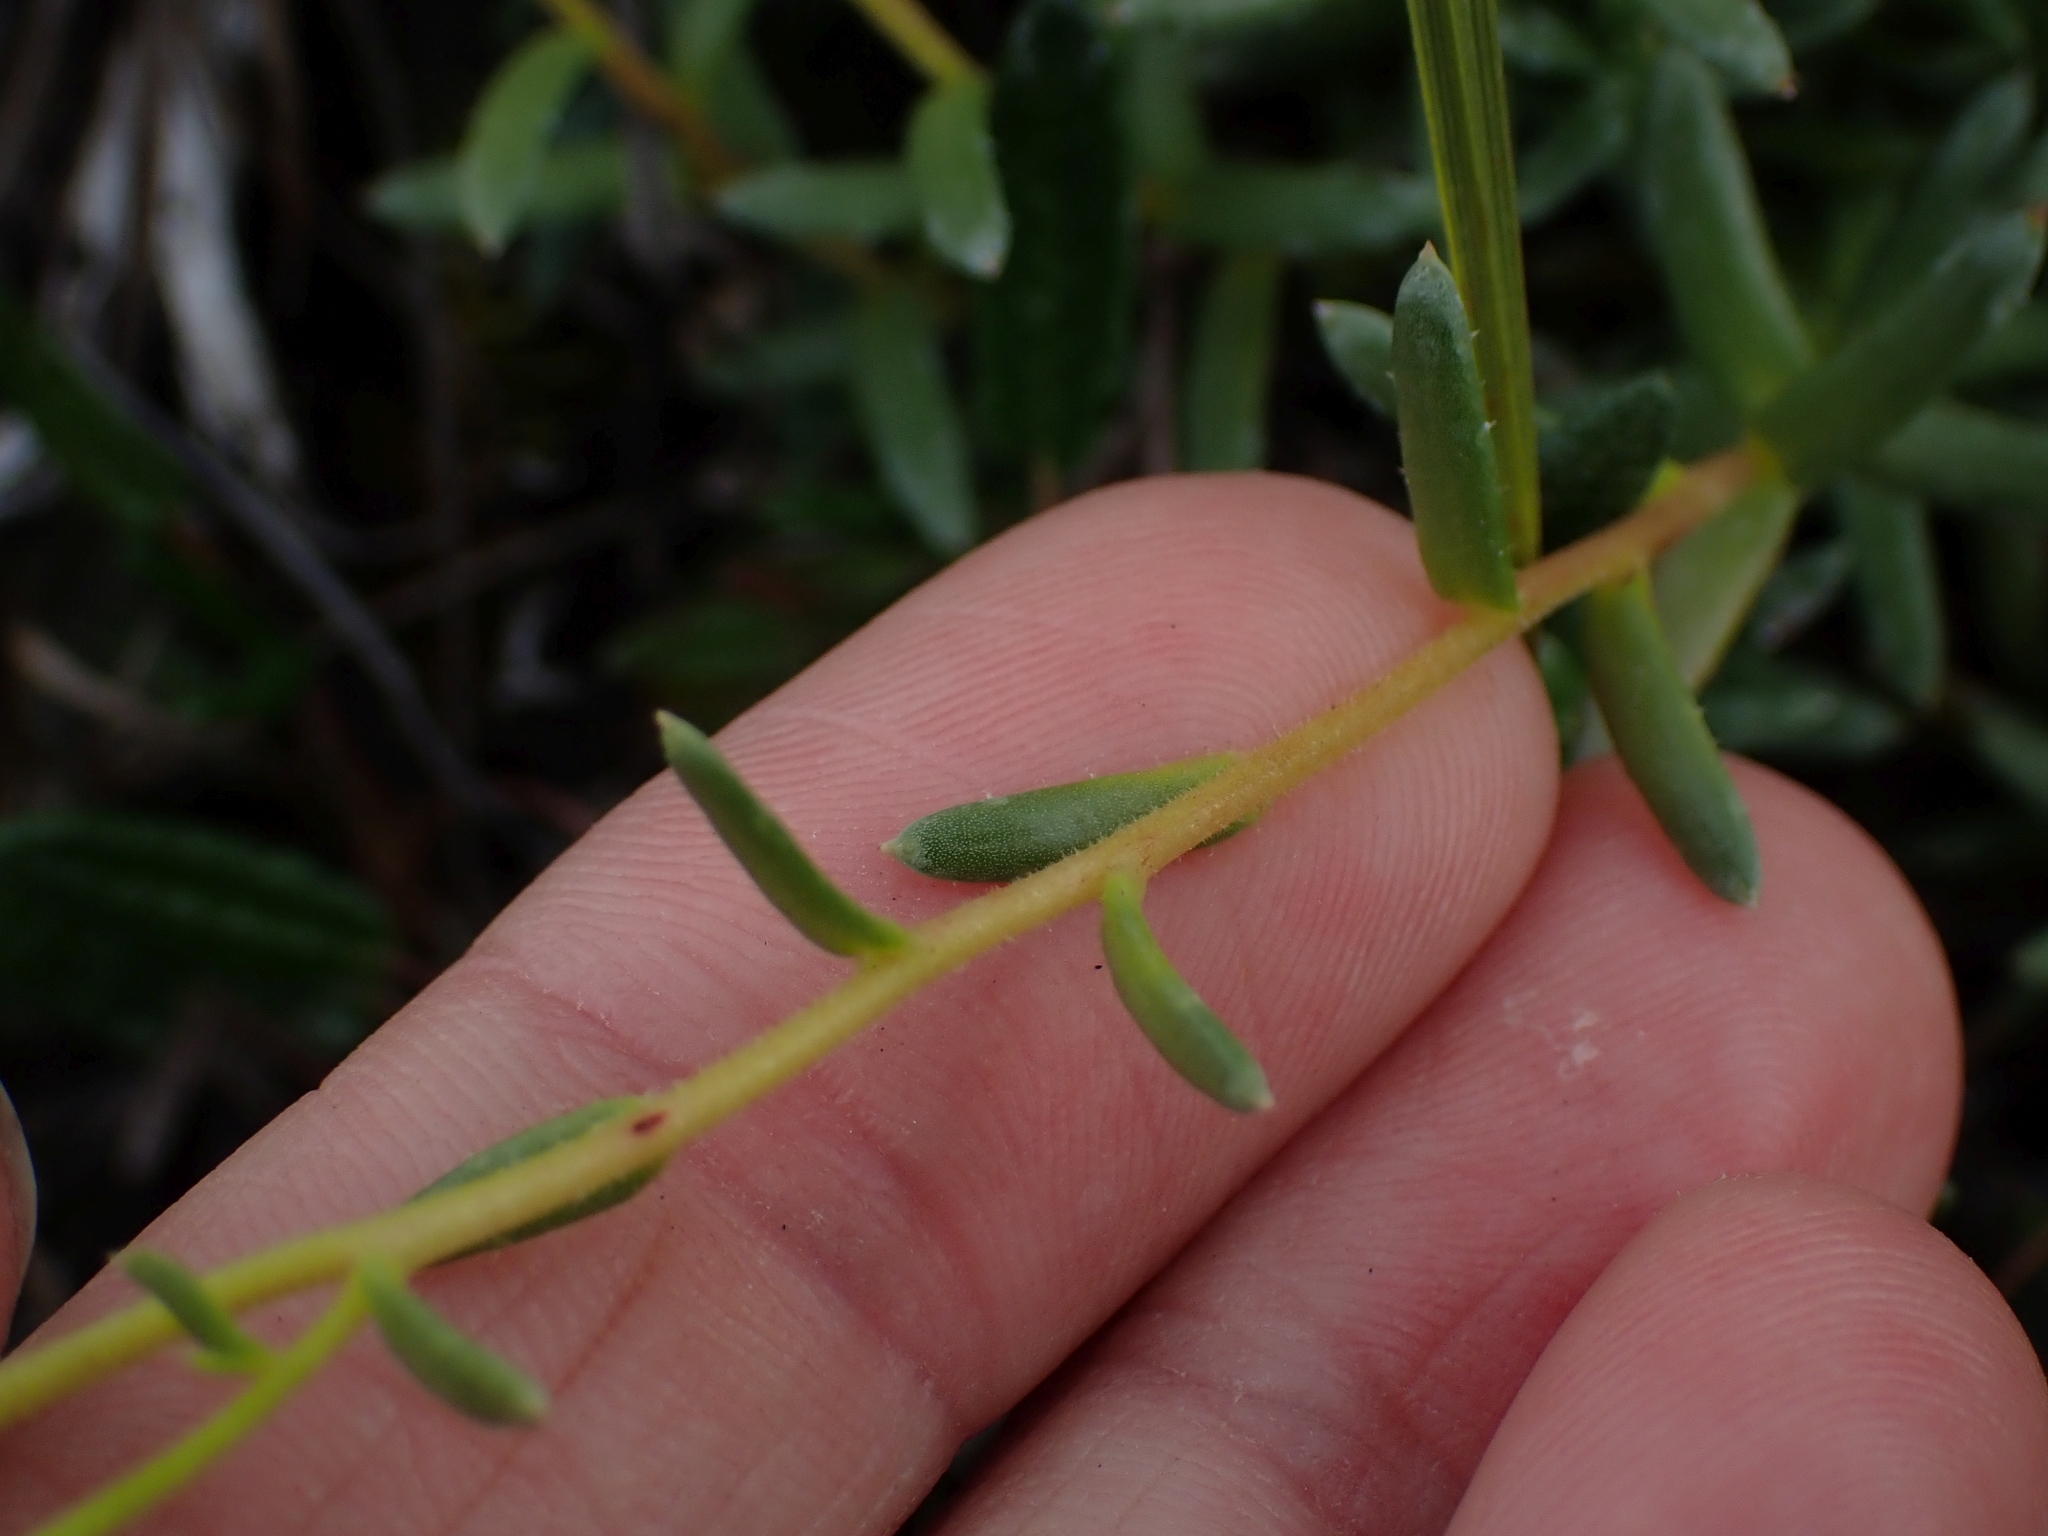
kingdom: Plantae
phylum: Tracheophyta
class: Magnoliopsida
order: Saxifragales
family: Saxifragaceae
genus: Saxifraga
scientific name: Saxifraga aizoides
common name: Yellow mountain saxifrage
